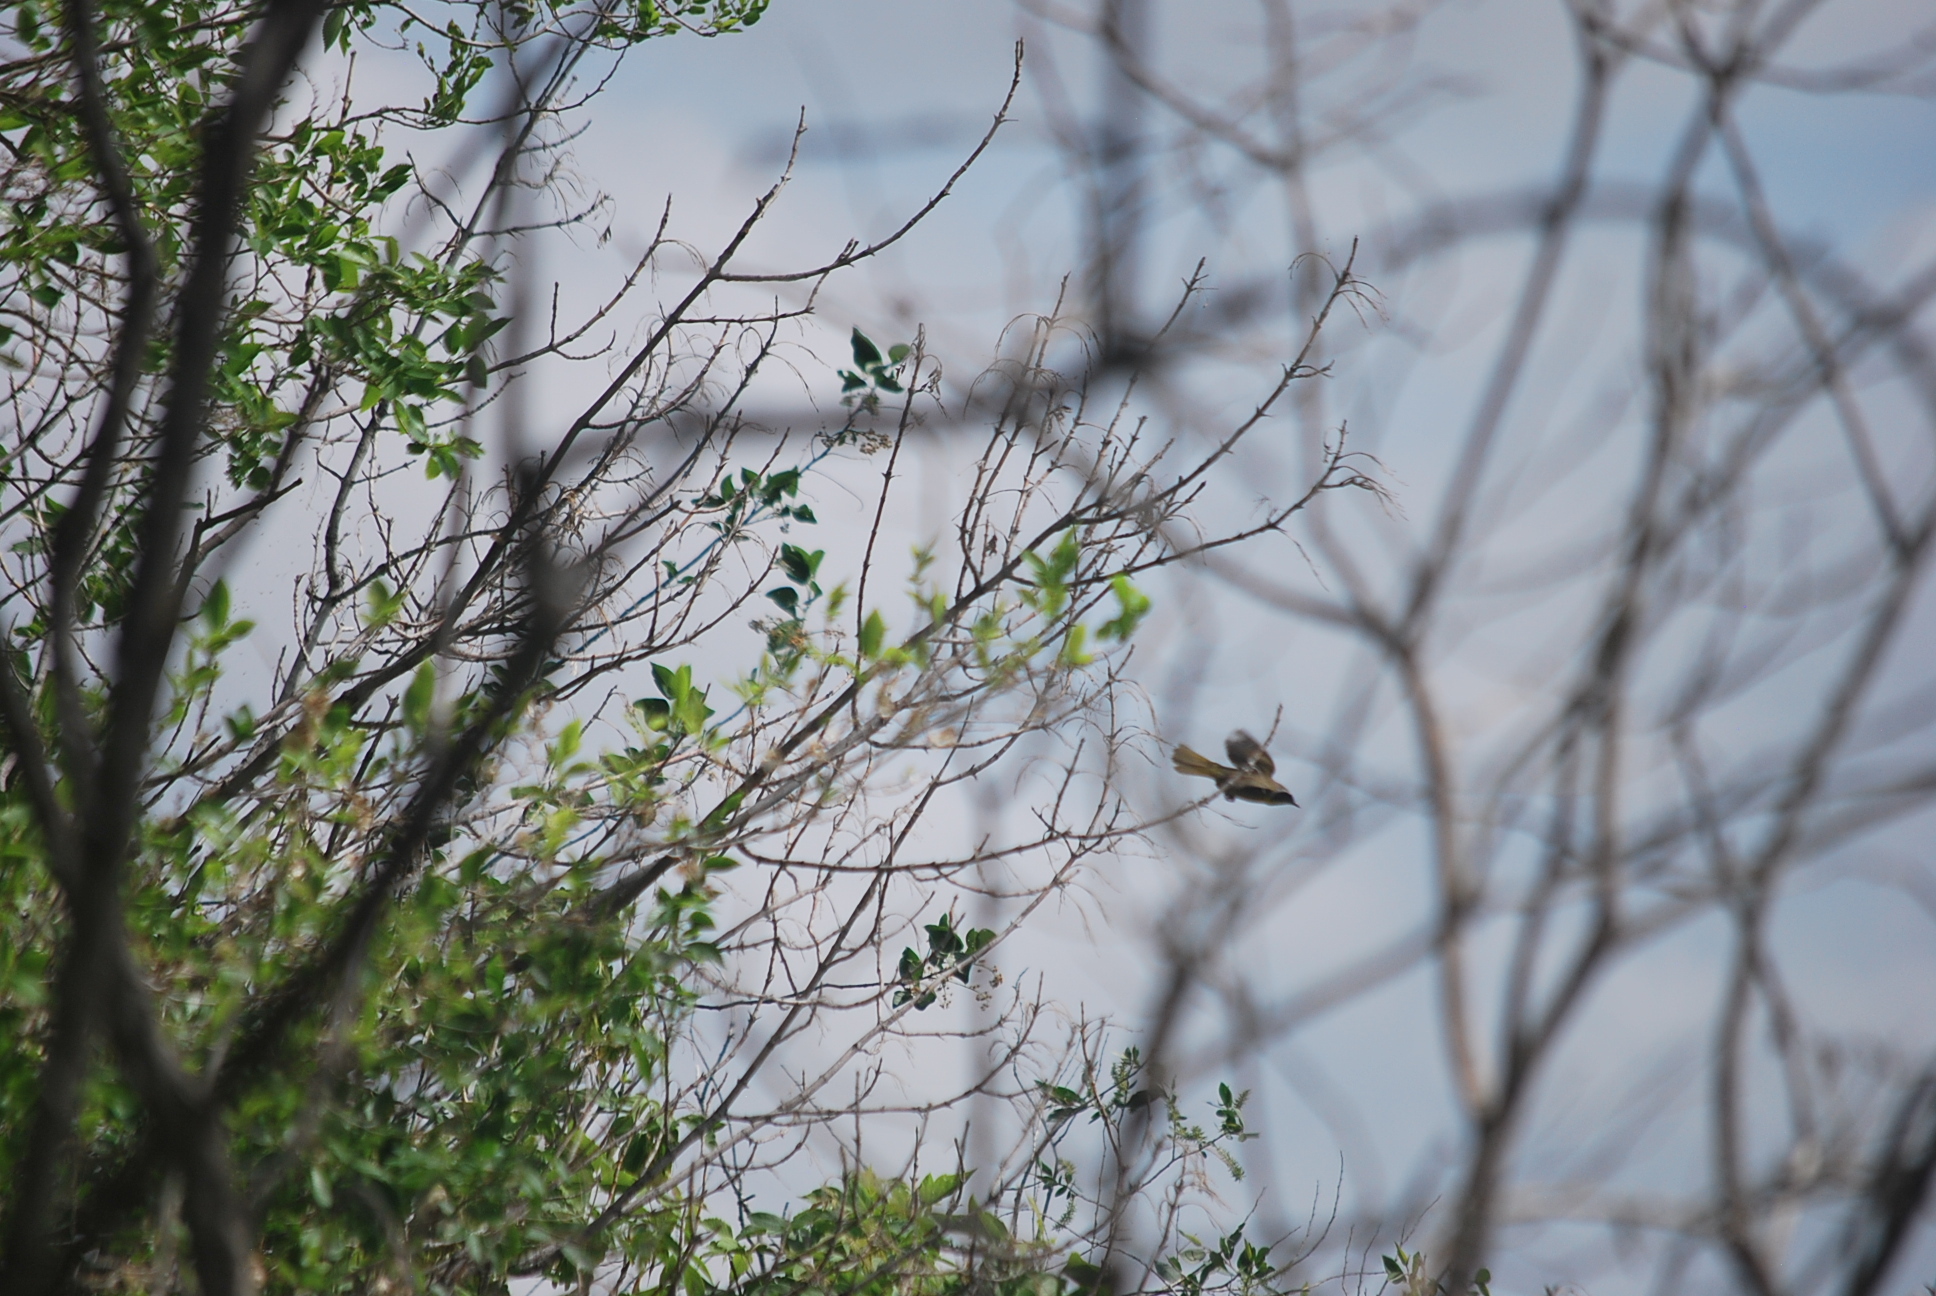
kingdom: Animalia
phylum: Chordata
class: Aves
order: Passeriformes
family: Parulidae
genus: Geothlypis
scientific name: Geothlypis trichas
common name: Common yellowthroat
